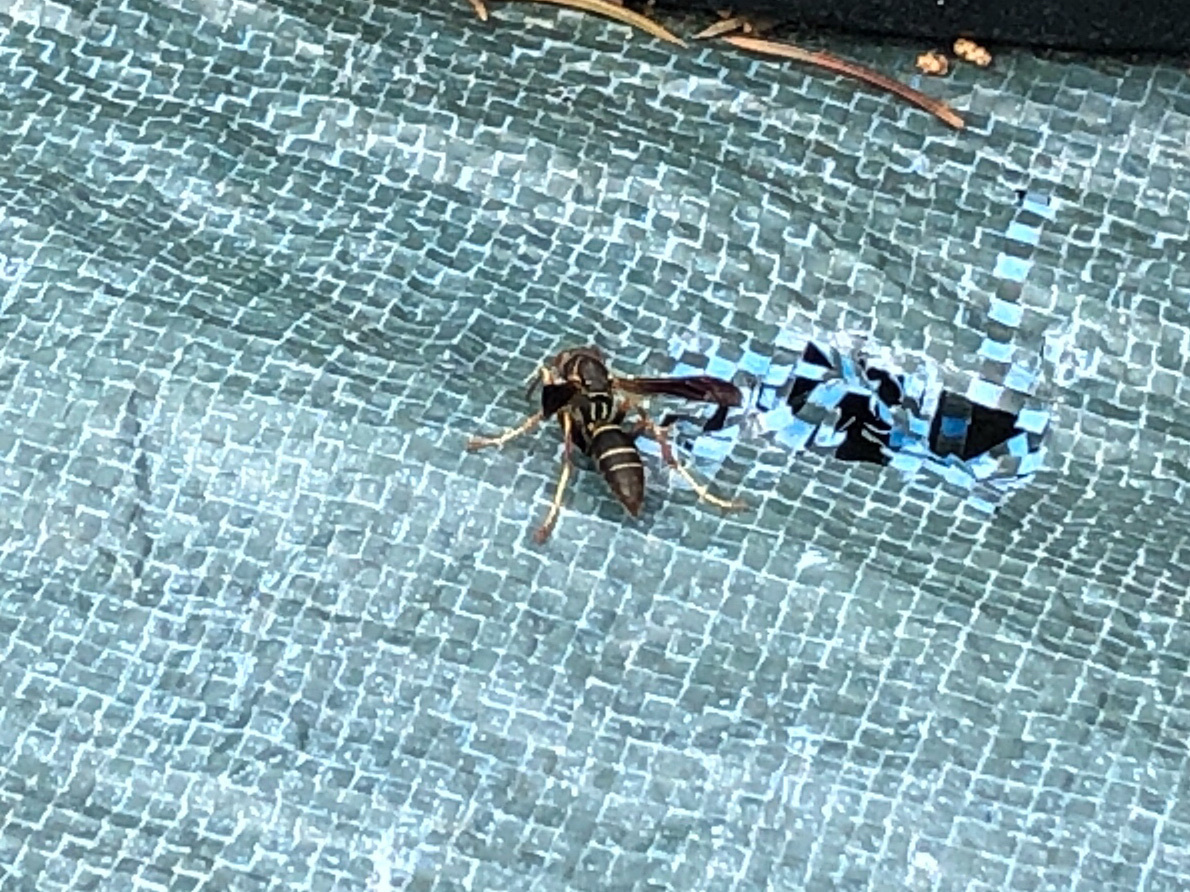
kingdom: Animalia
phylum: Arthropoda
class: Insecta
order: Hymenoptera
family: Eumenidae
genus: Polistes
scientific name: Polistes fuscatus
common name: Dark paper wasp
